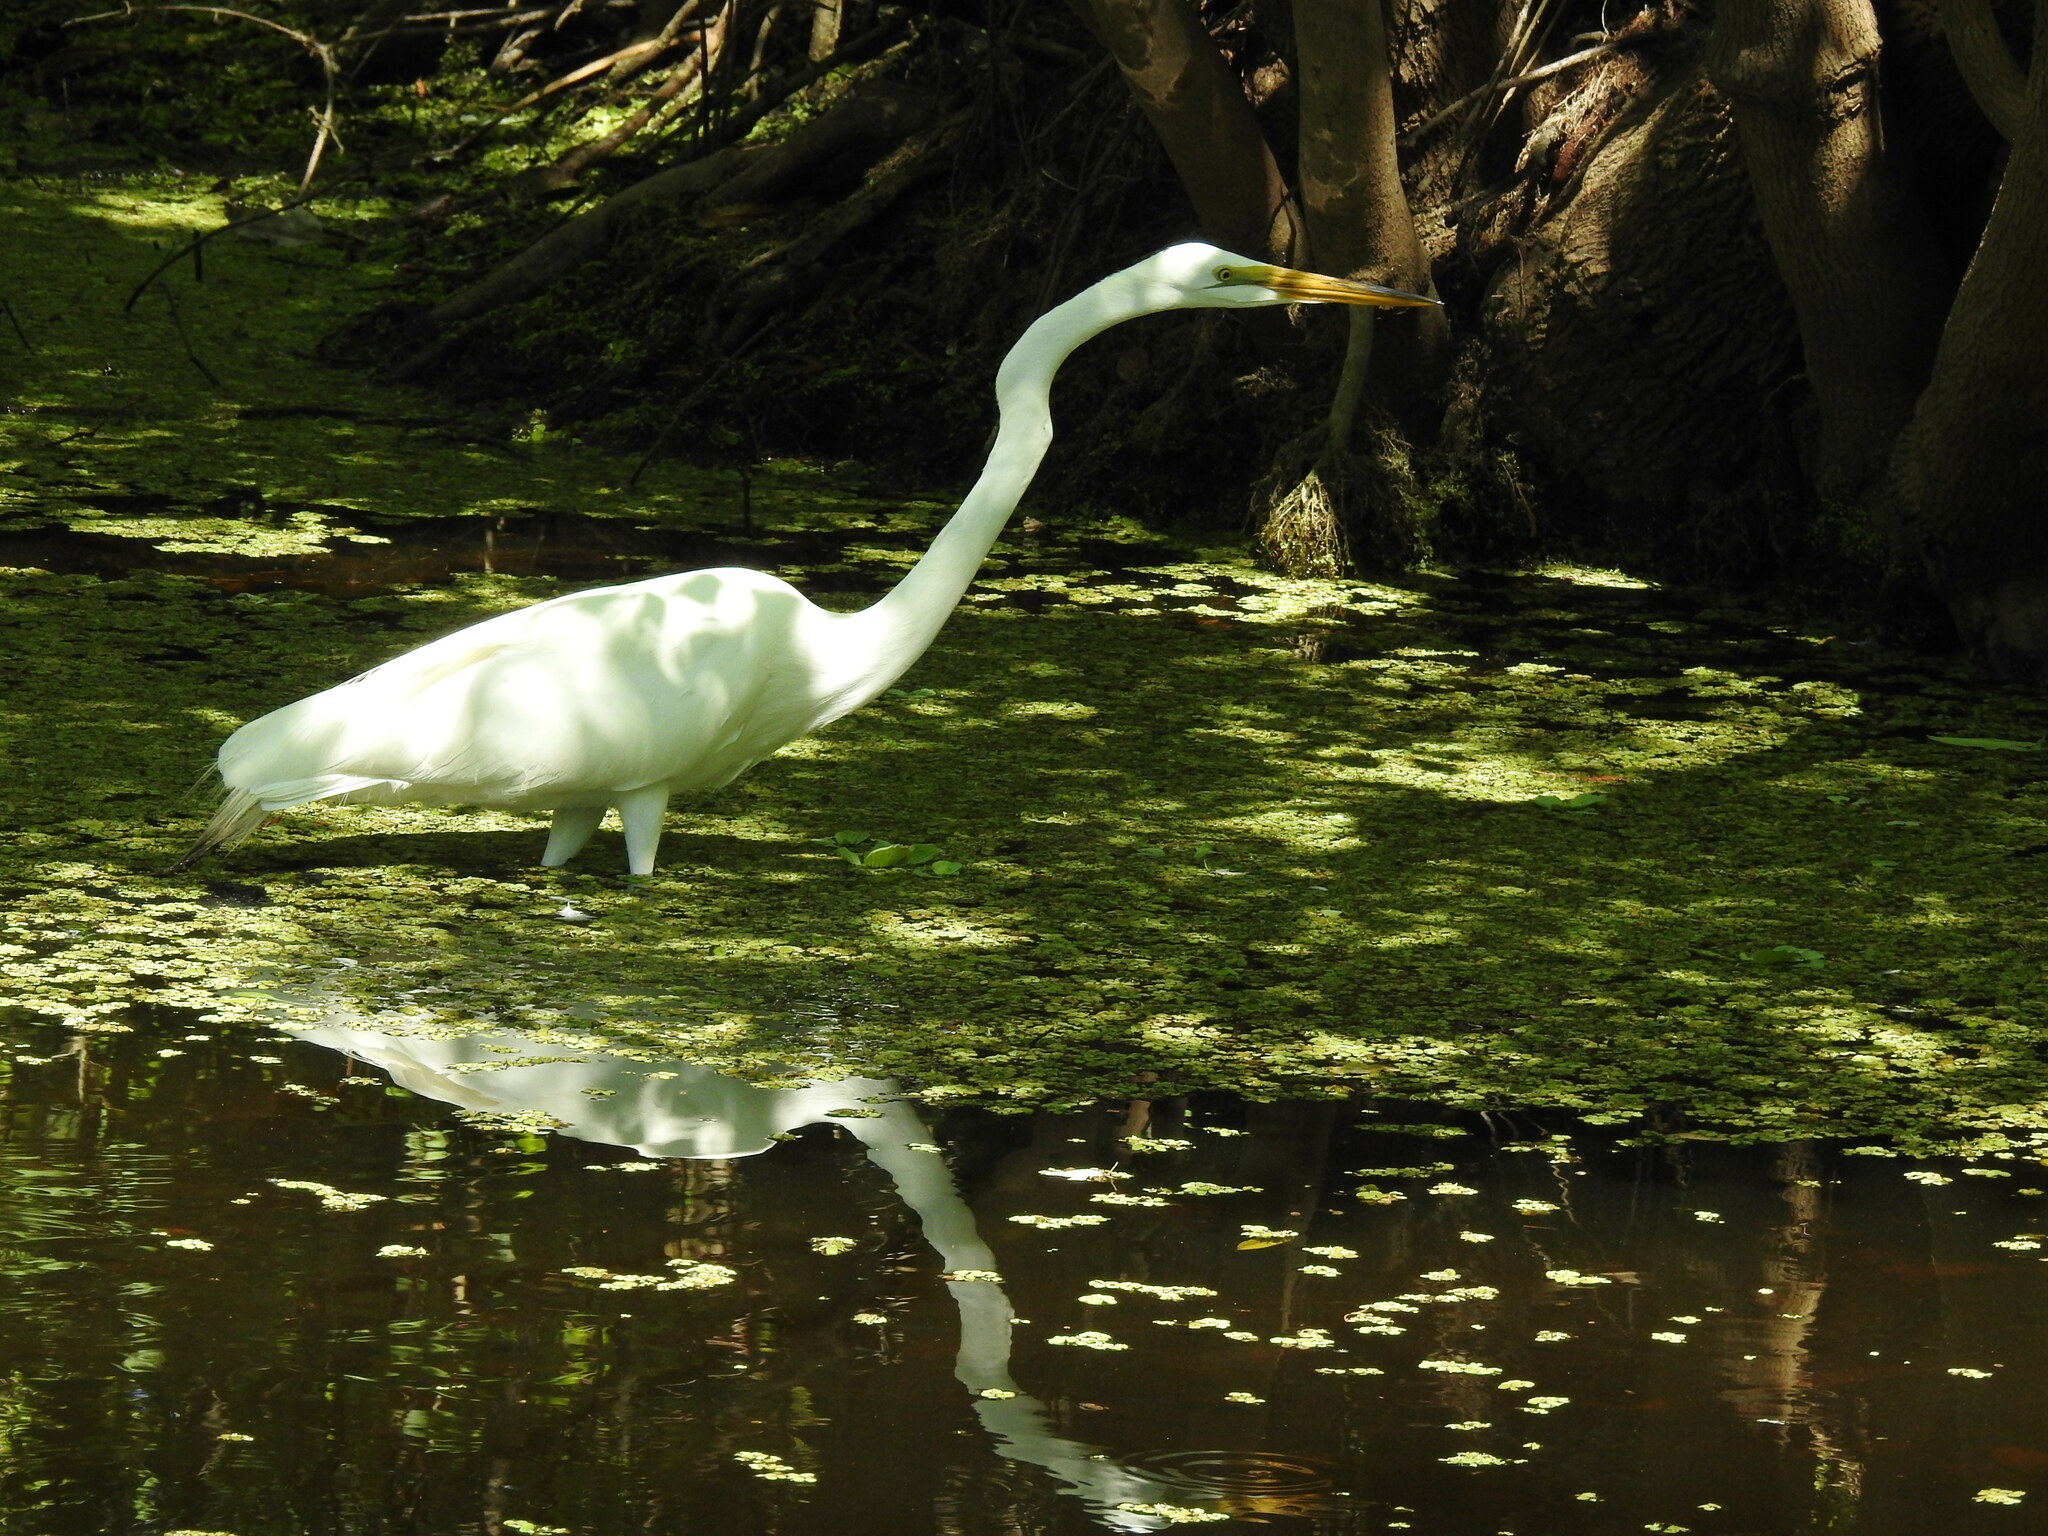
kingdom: Animalia
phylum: Chordata
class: Aves
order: Pelecaniformes
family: Ardeidae
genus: Ardea
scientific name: Ardea alba
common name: Great egret
